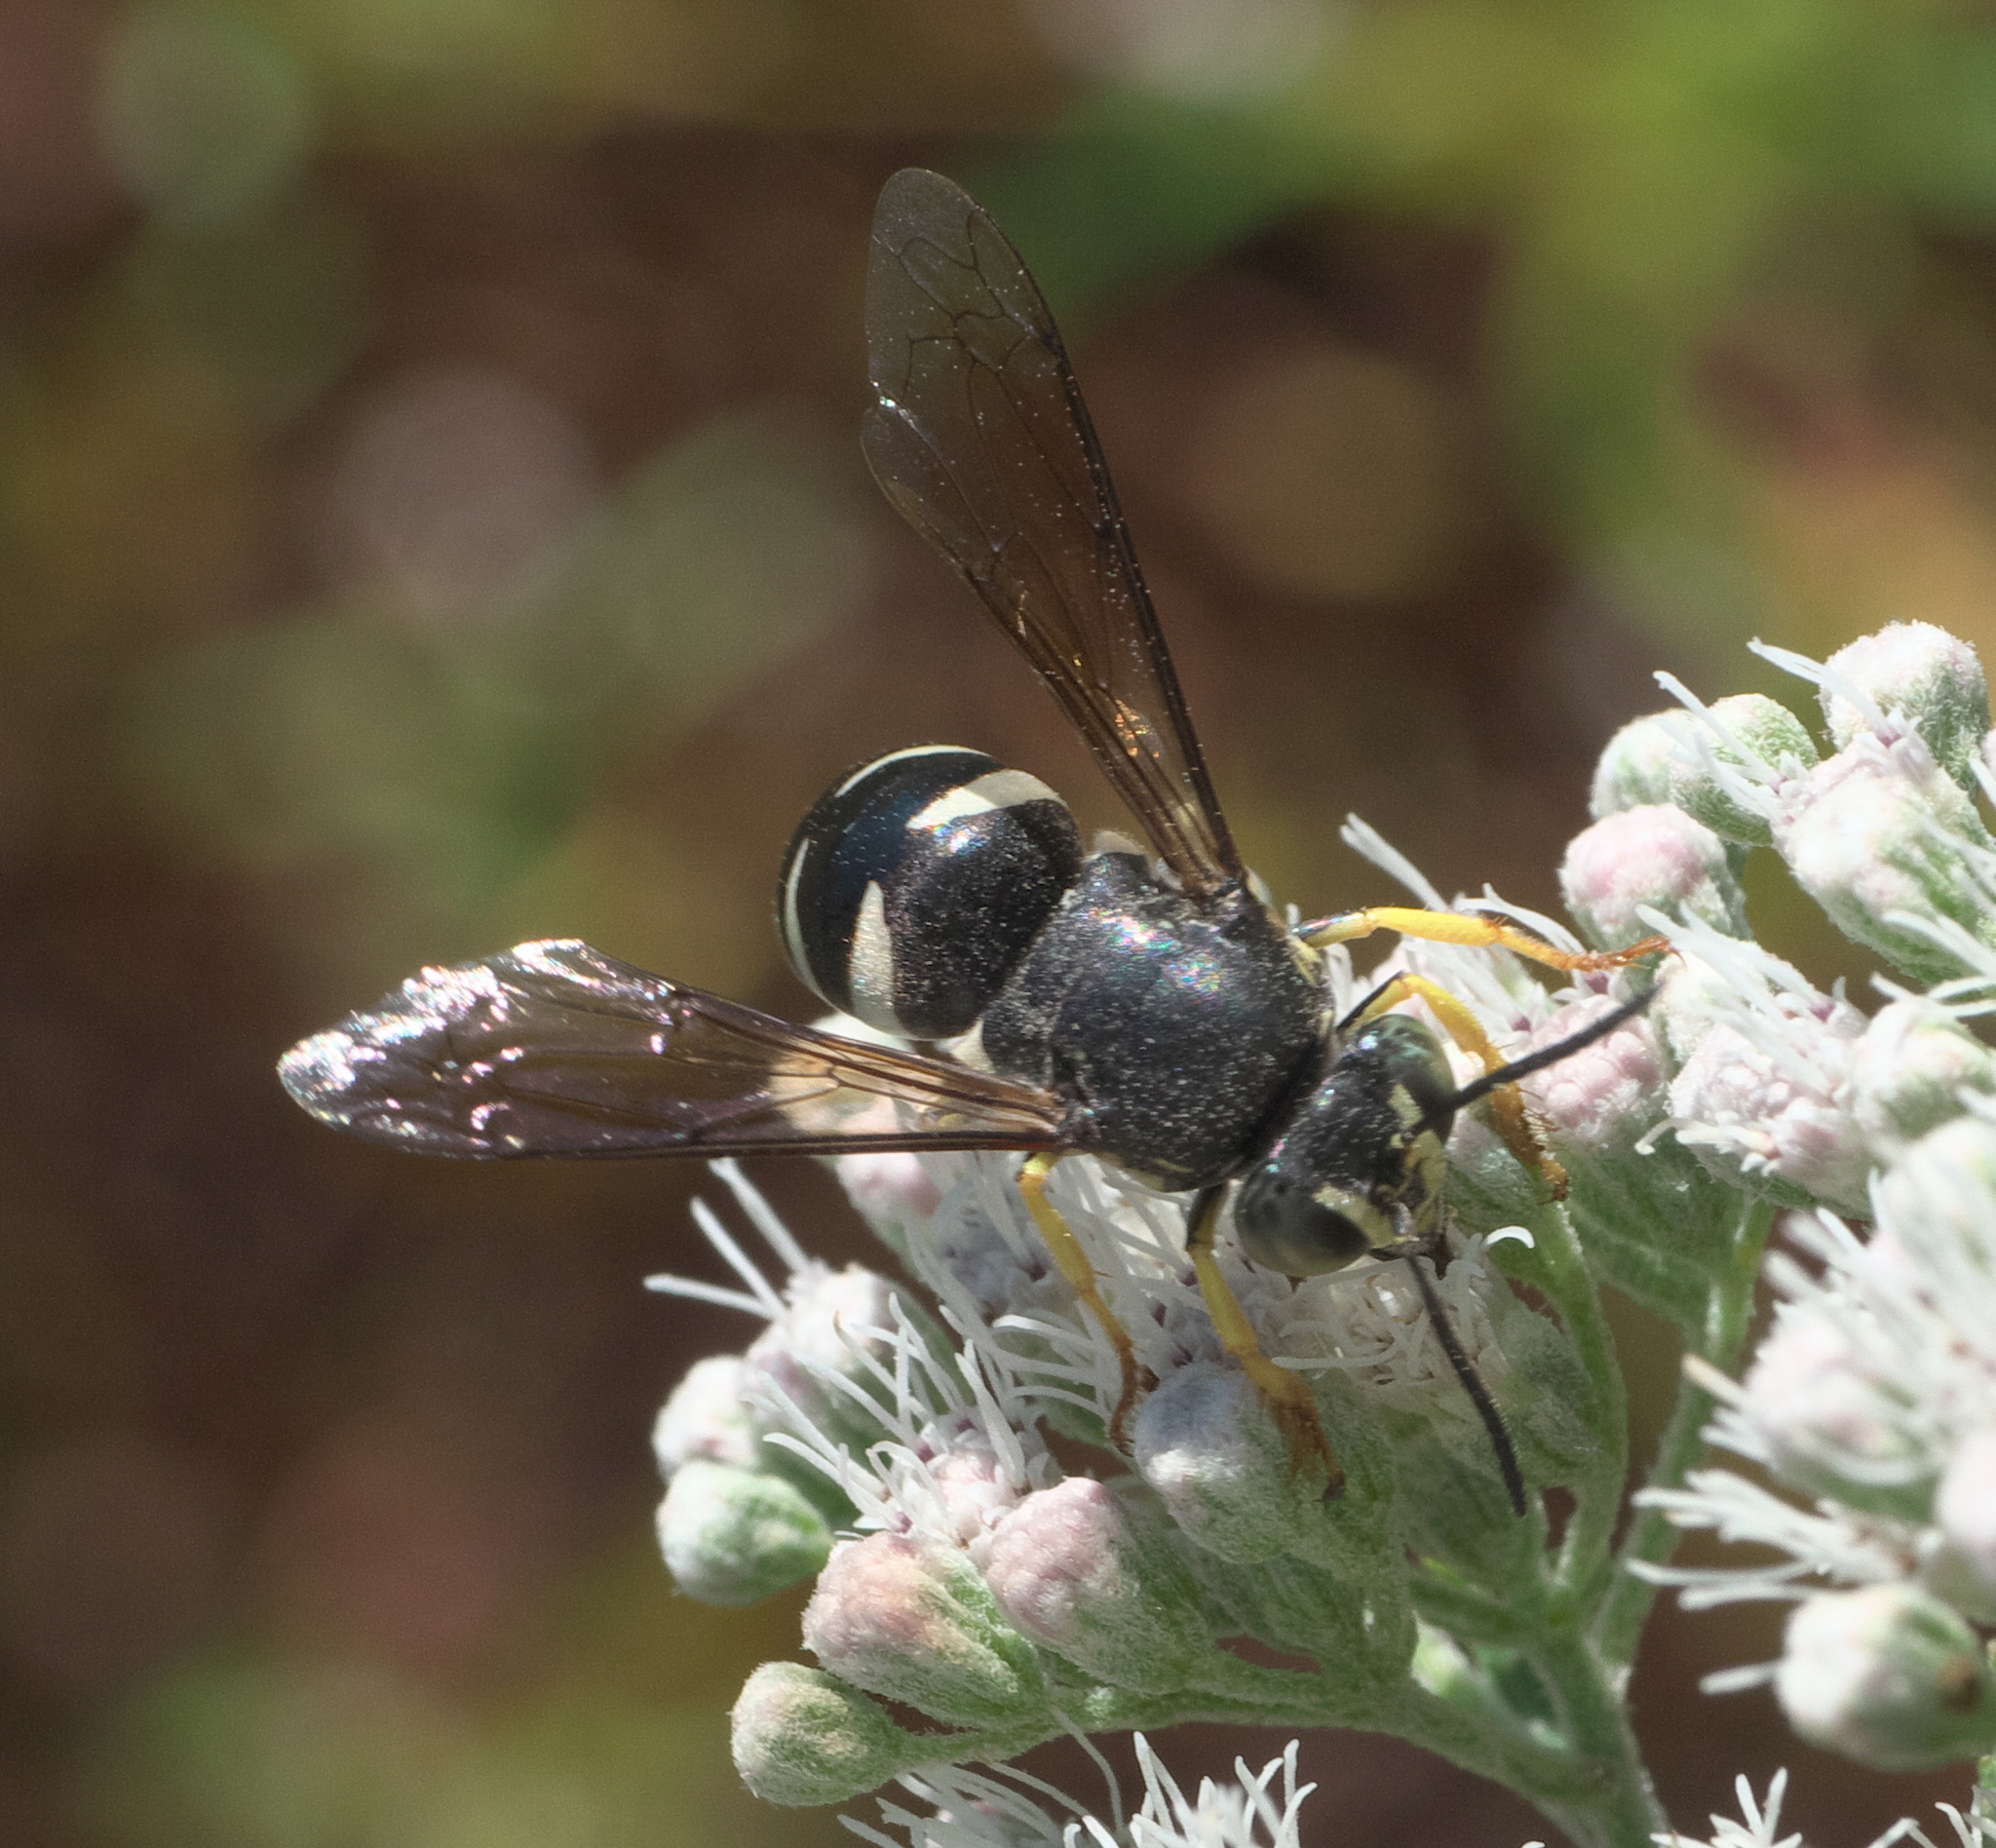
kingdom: Animalia
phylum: Arthropoda
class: Insecta
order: Hymenoptera
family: Crabronidae
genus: Bicyrtes
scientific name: Bicyrtes quadrifasciatus
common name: Four-banded stink bug hunter wasp
